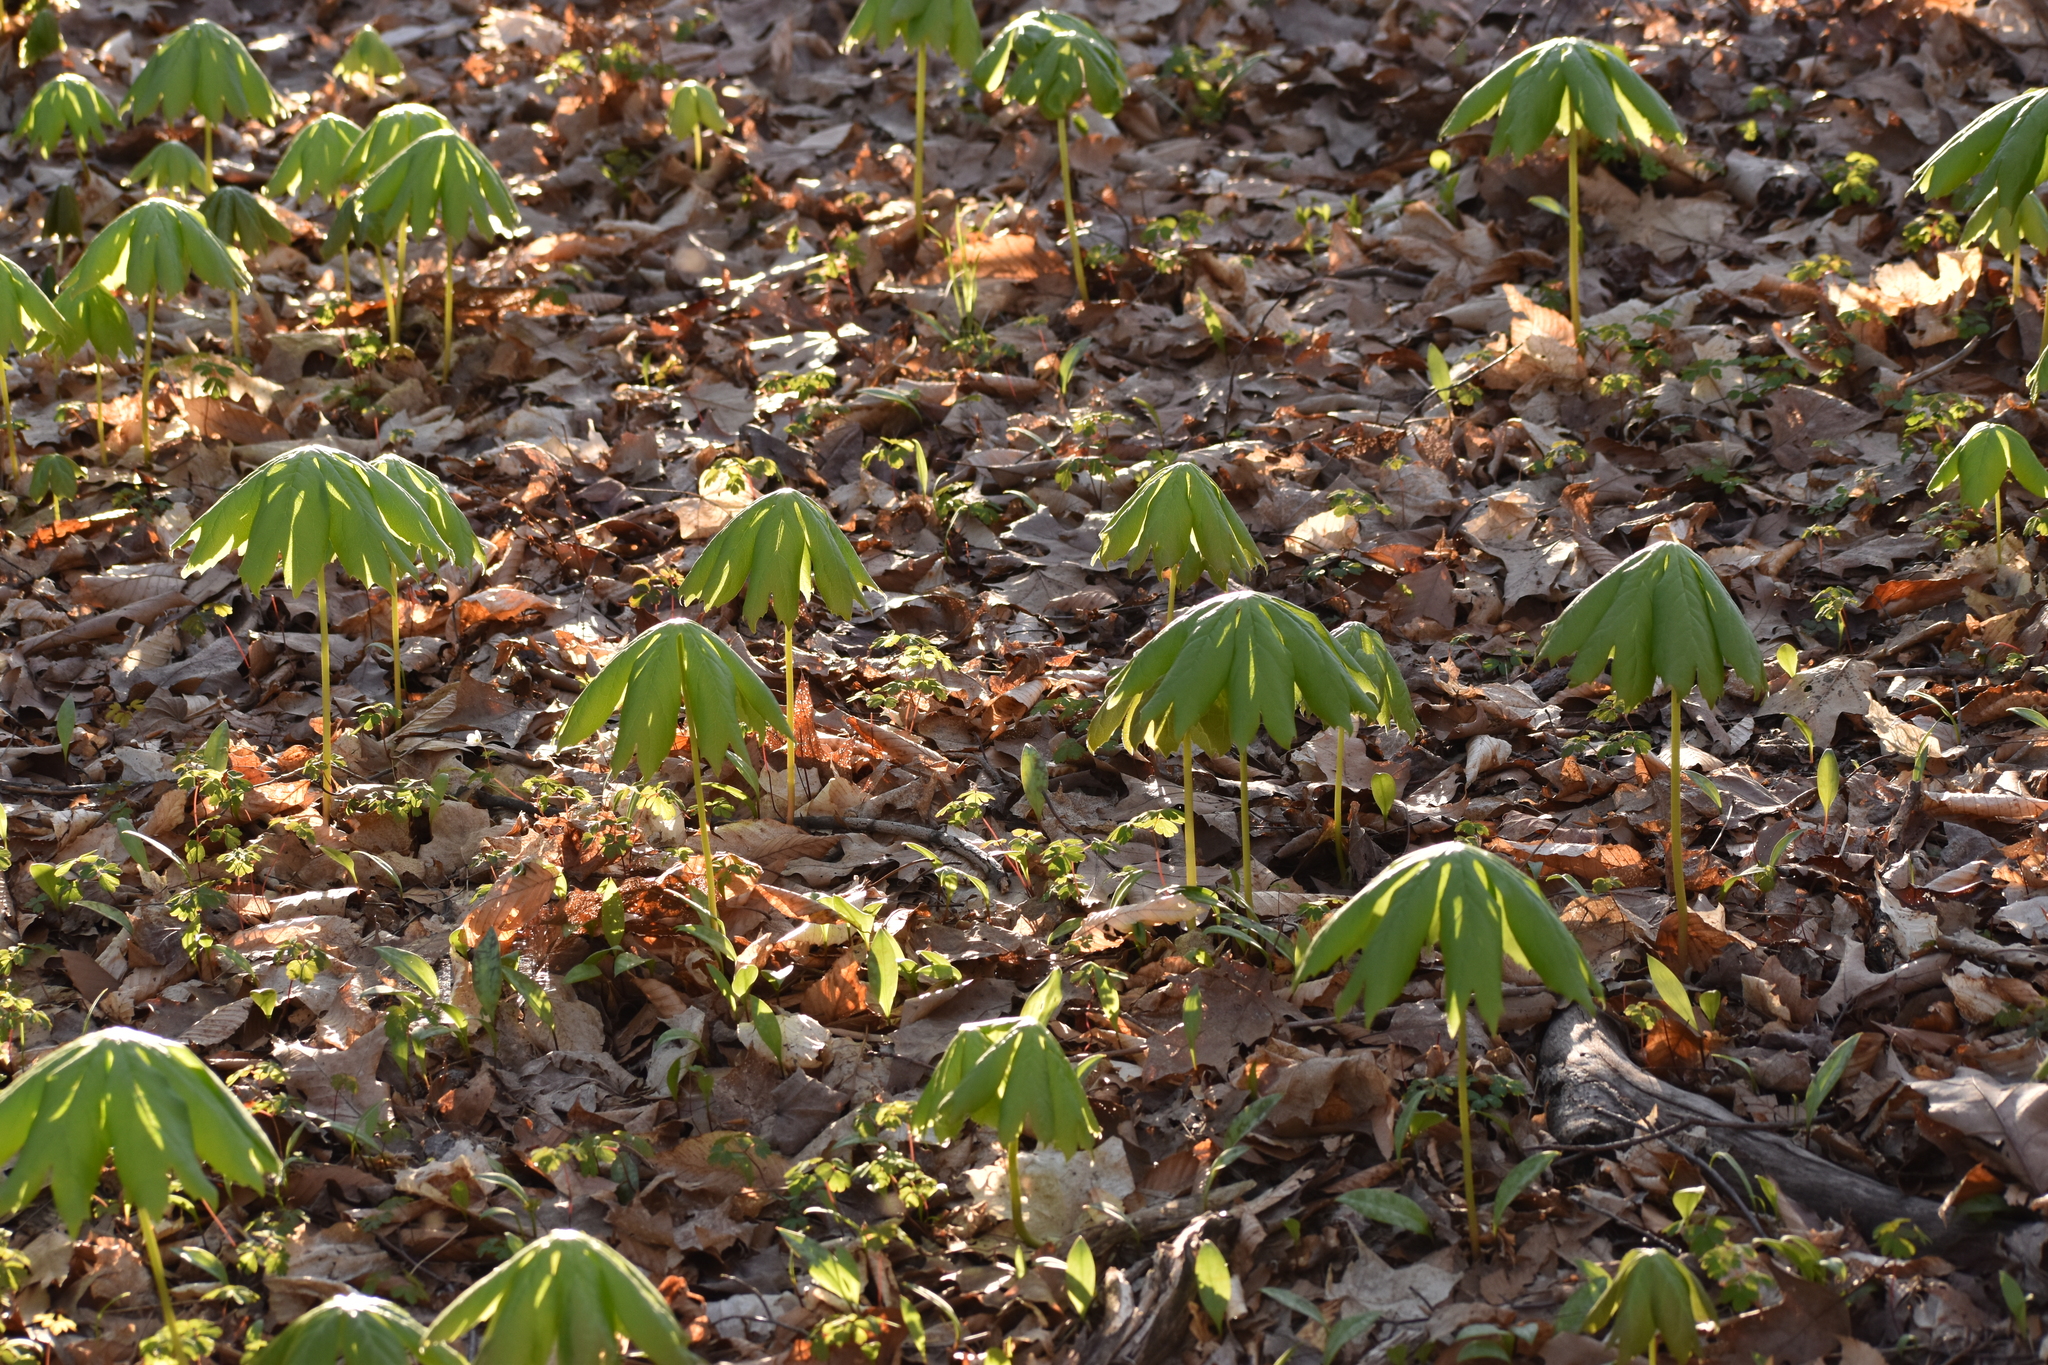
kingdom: Plantae
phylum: Tracheophyta
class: Magnoliopsida
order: Ranunculales
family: Berberidaceae
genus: Podophyllum
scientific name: Podophyllum peltatum
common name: Wild mandrake
